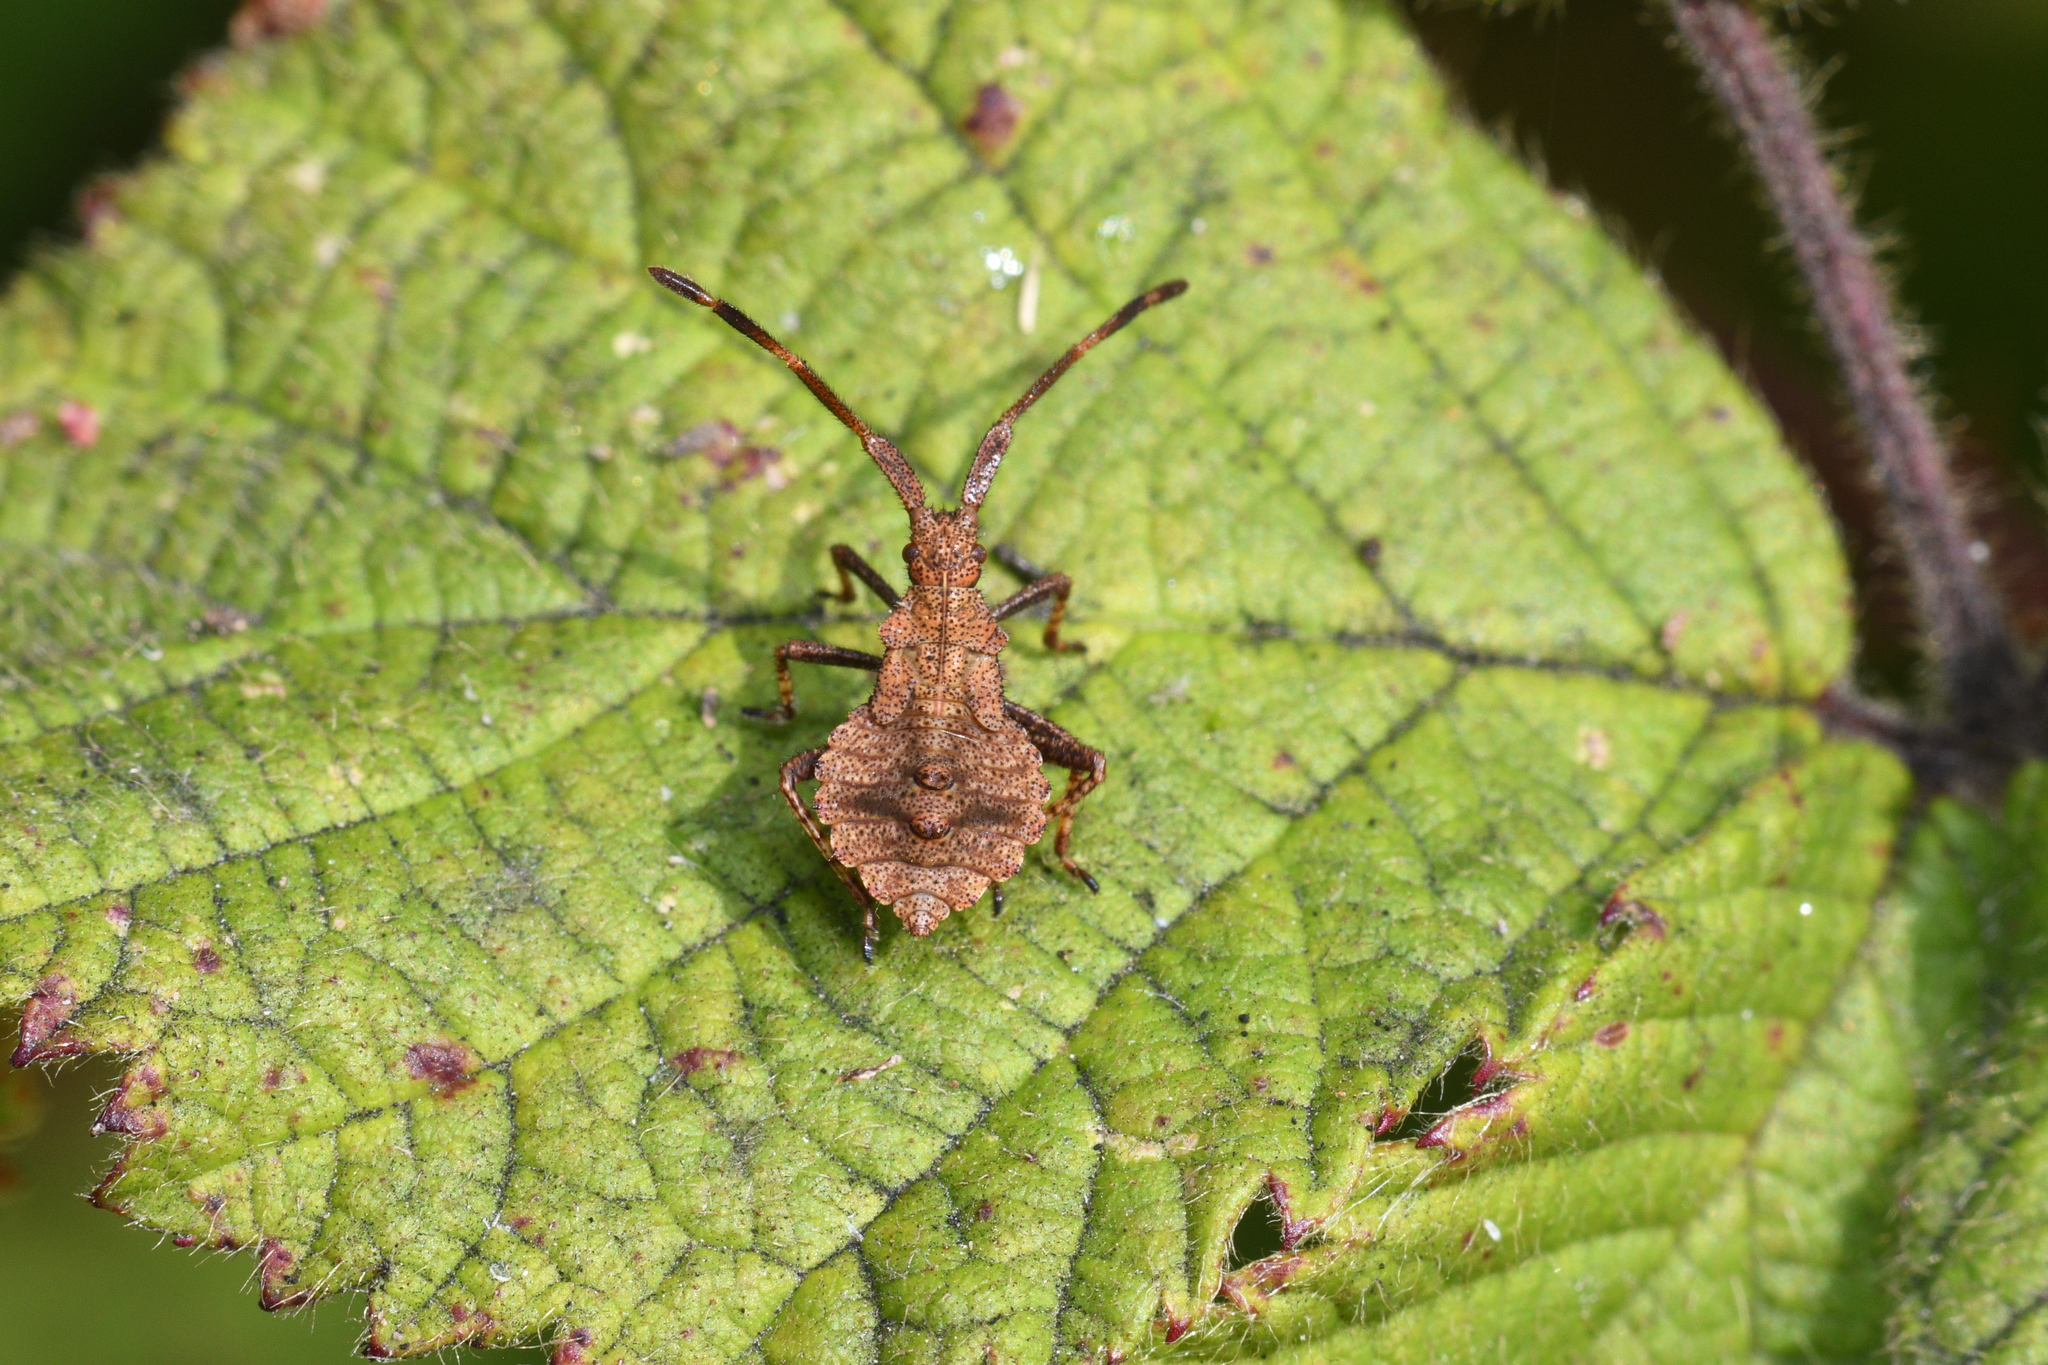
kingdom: Animalia
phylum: Arthropoda
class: Insecta
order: Hemiptera
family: Coreidae
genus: Coreus
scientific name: Coreus marginatus
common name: Dock bug
